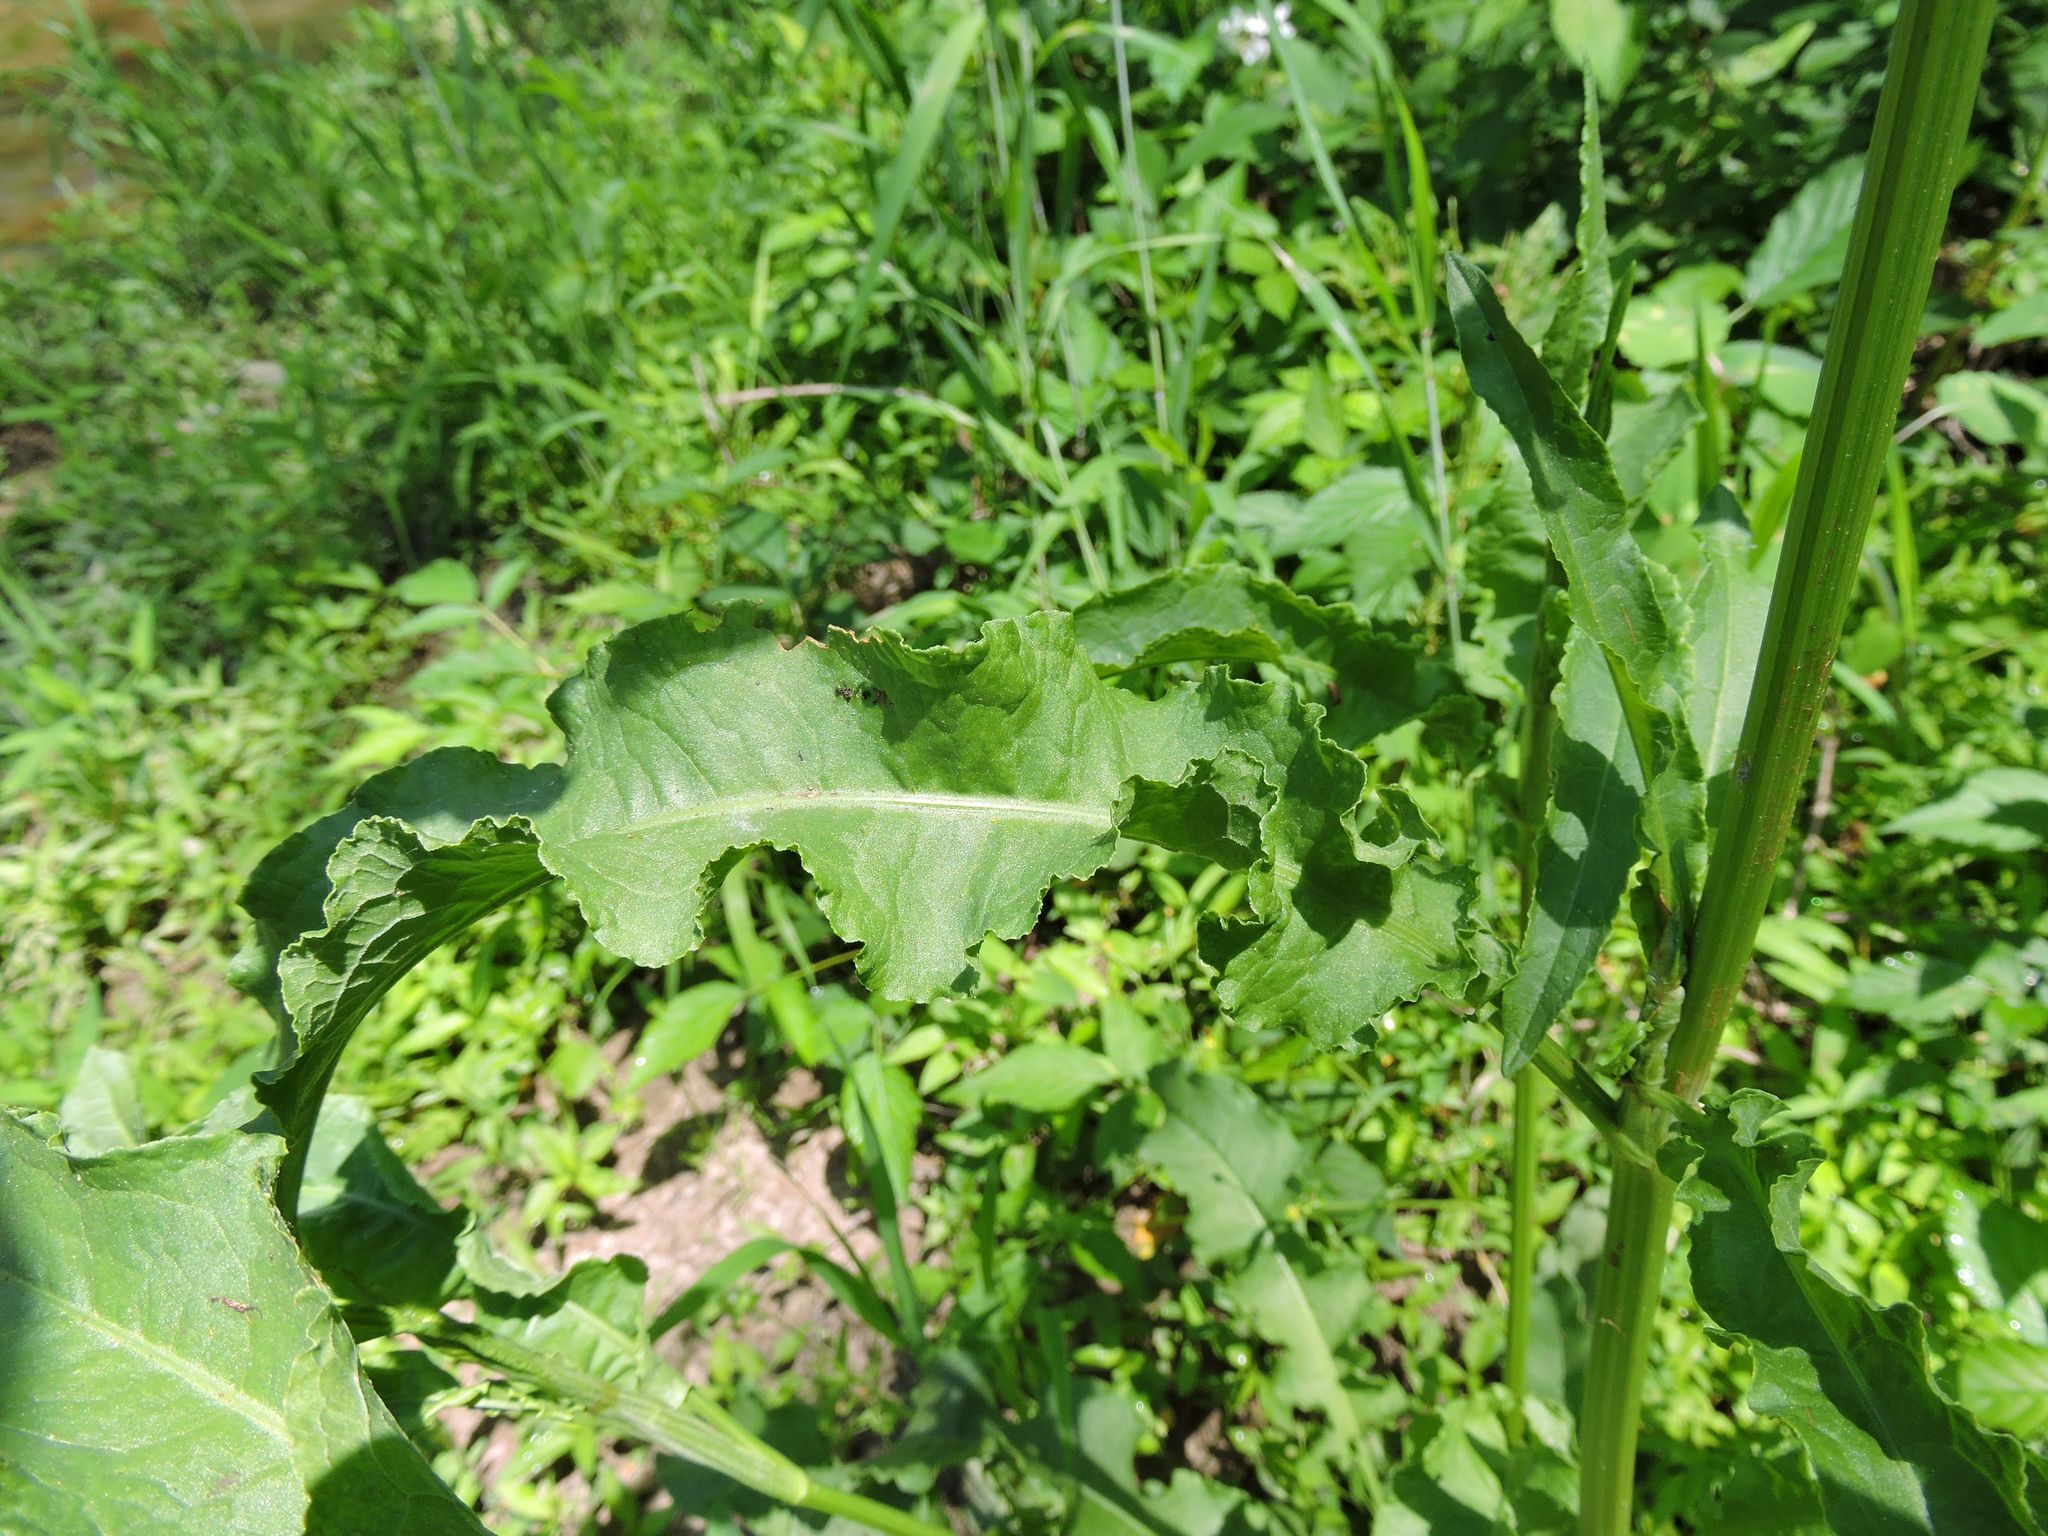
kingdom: Plantae
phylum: Tracheophyta
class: Magnoliopsida
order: Caryophyllales
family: Polygonaceae
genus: Rumex
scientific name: Rumex crispus
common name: Curled dock
